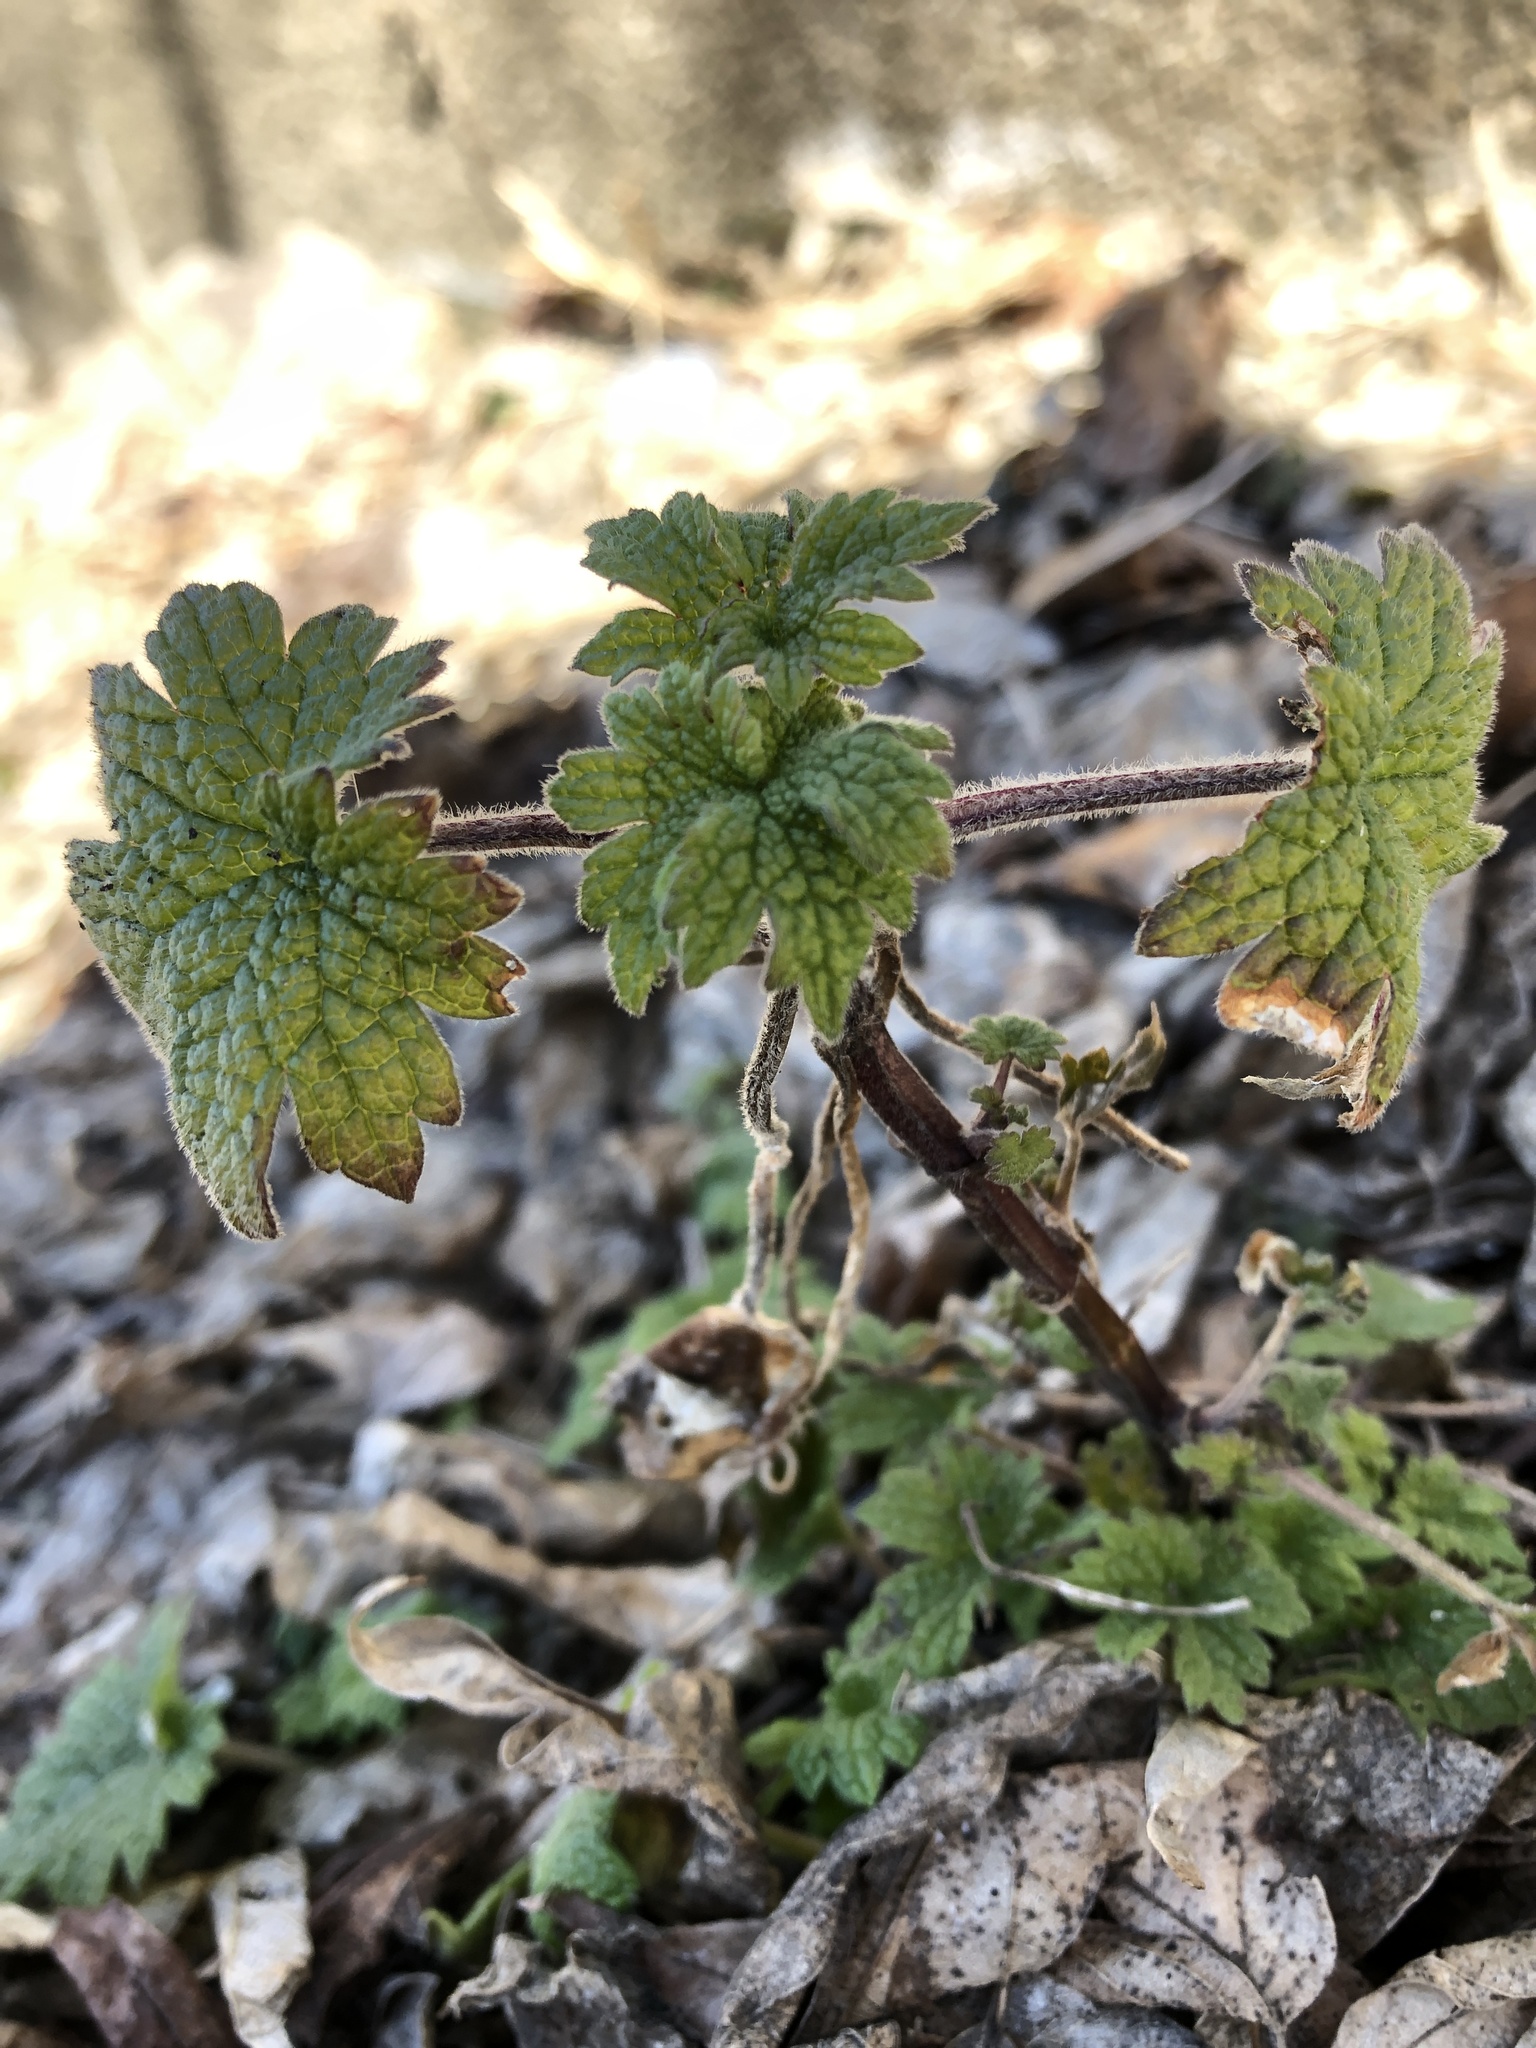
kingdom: Plantae
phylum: Tracheophyta
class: Magnoliopsida
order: Lamiales
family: Lamiaceae
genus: Leonurus
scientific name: Leonurus cardiaca
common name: Motherwort
